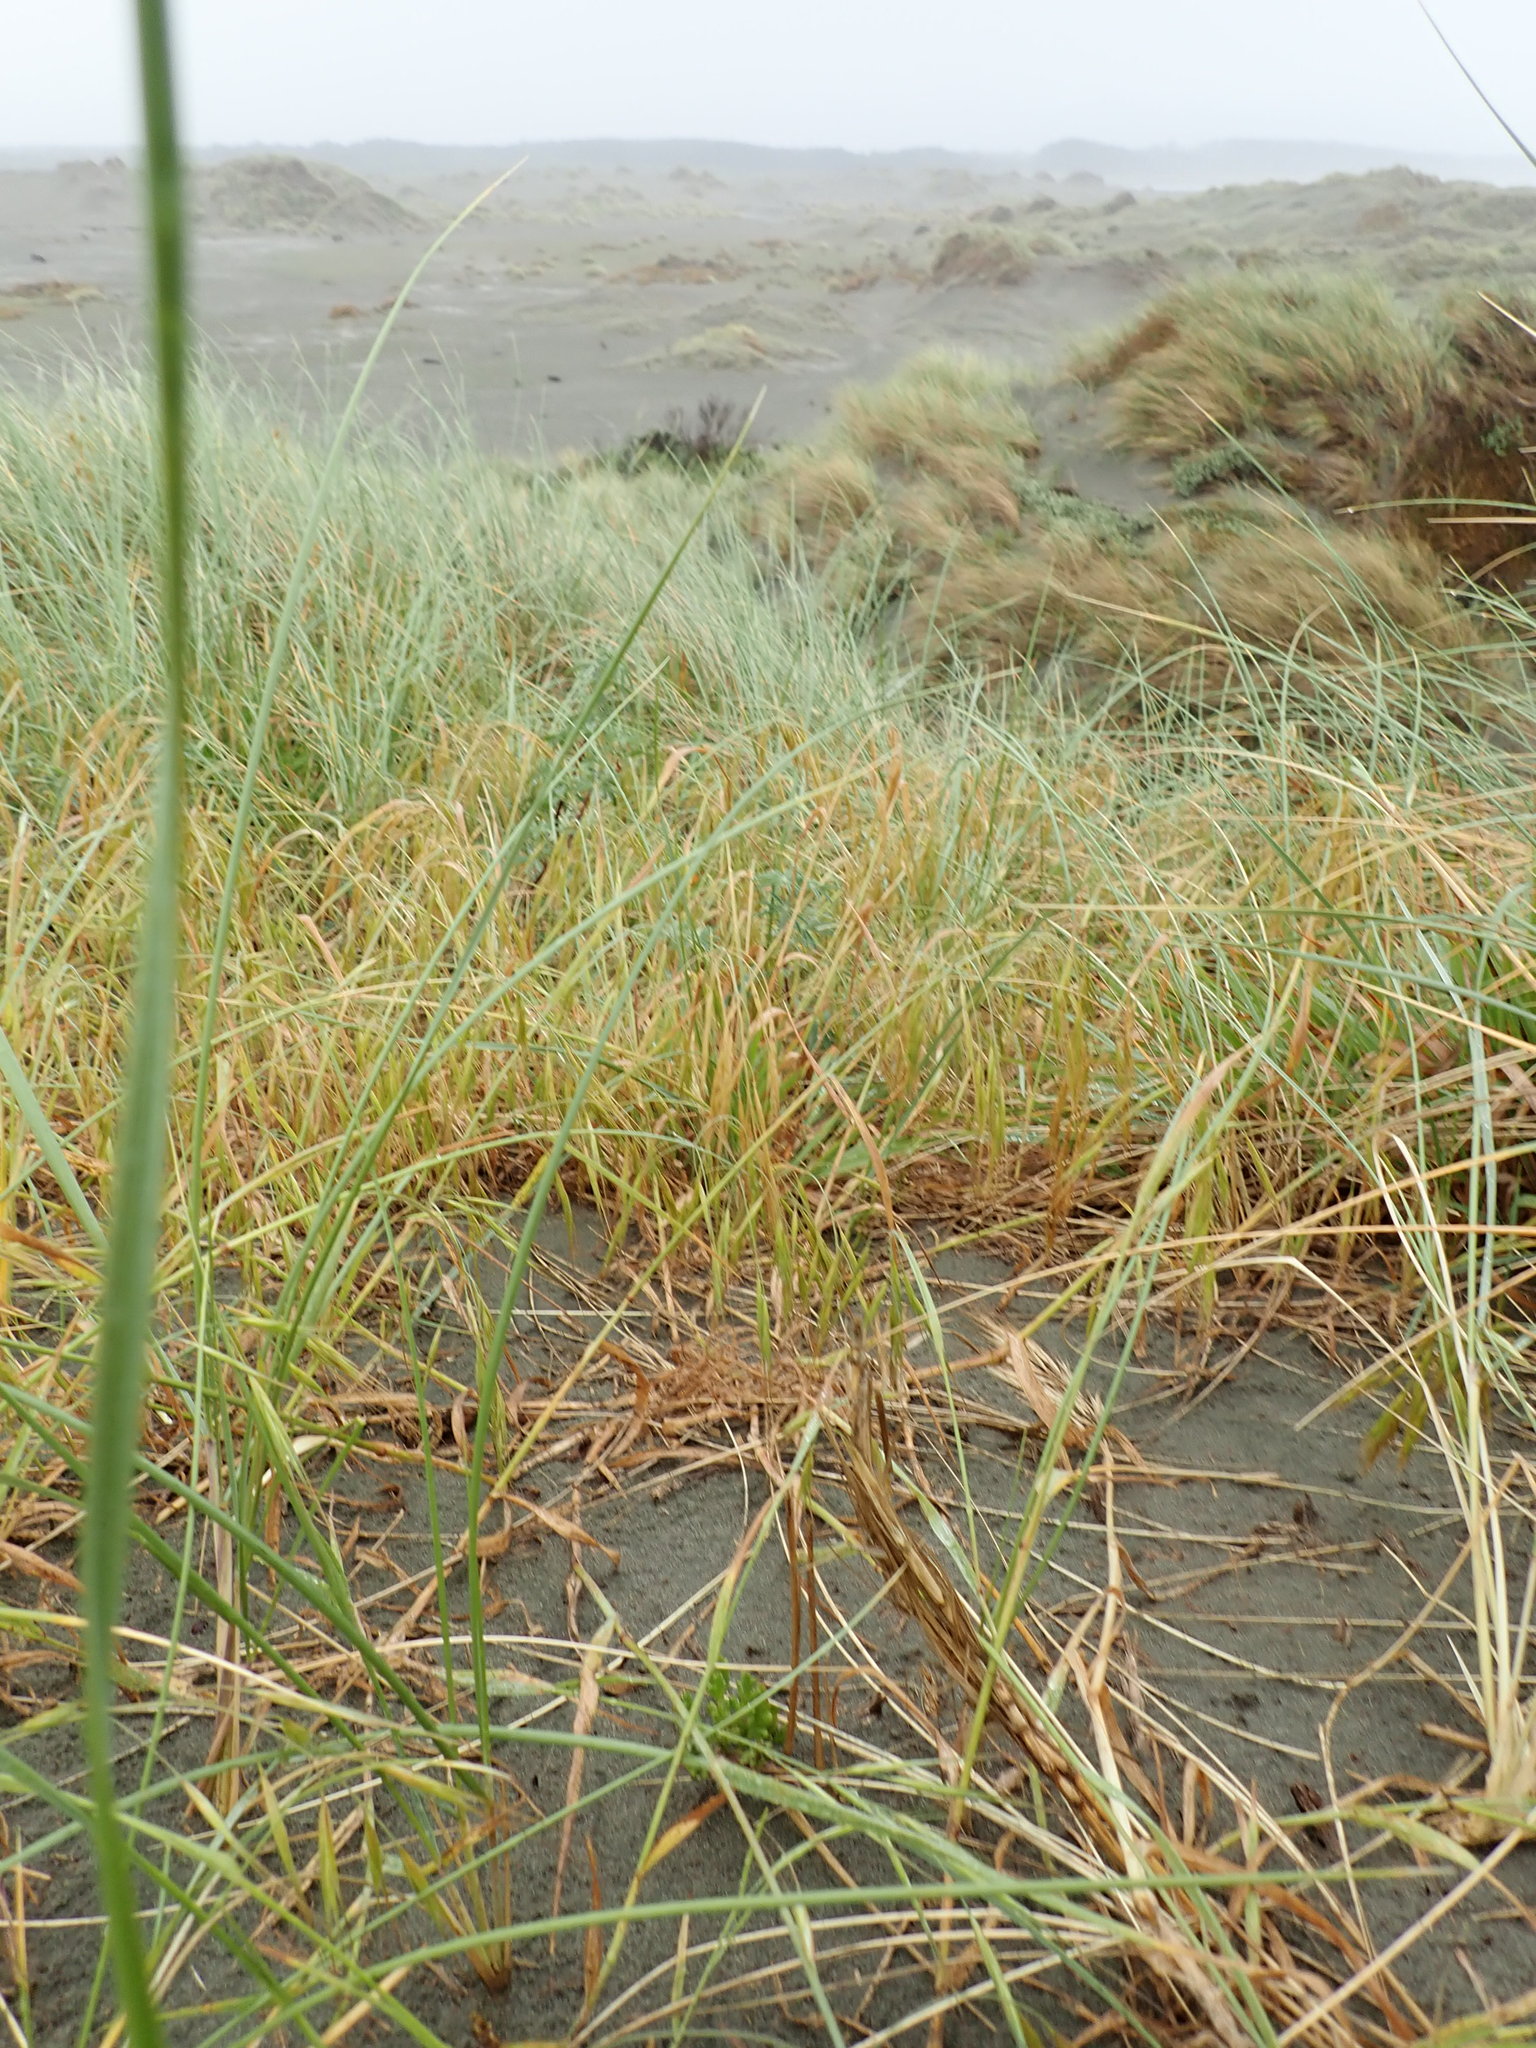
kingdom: Plantae
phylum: Tracheophyta
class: Liliopsida
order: Poales
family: Poaceae
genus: Bromus
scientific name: Bromus diandrus
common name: Ripgut brome
